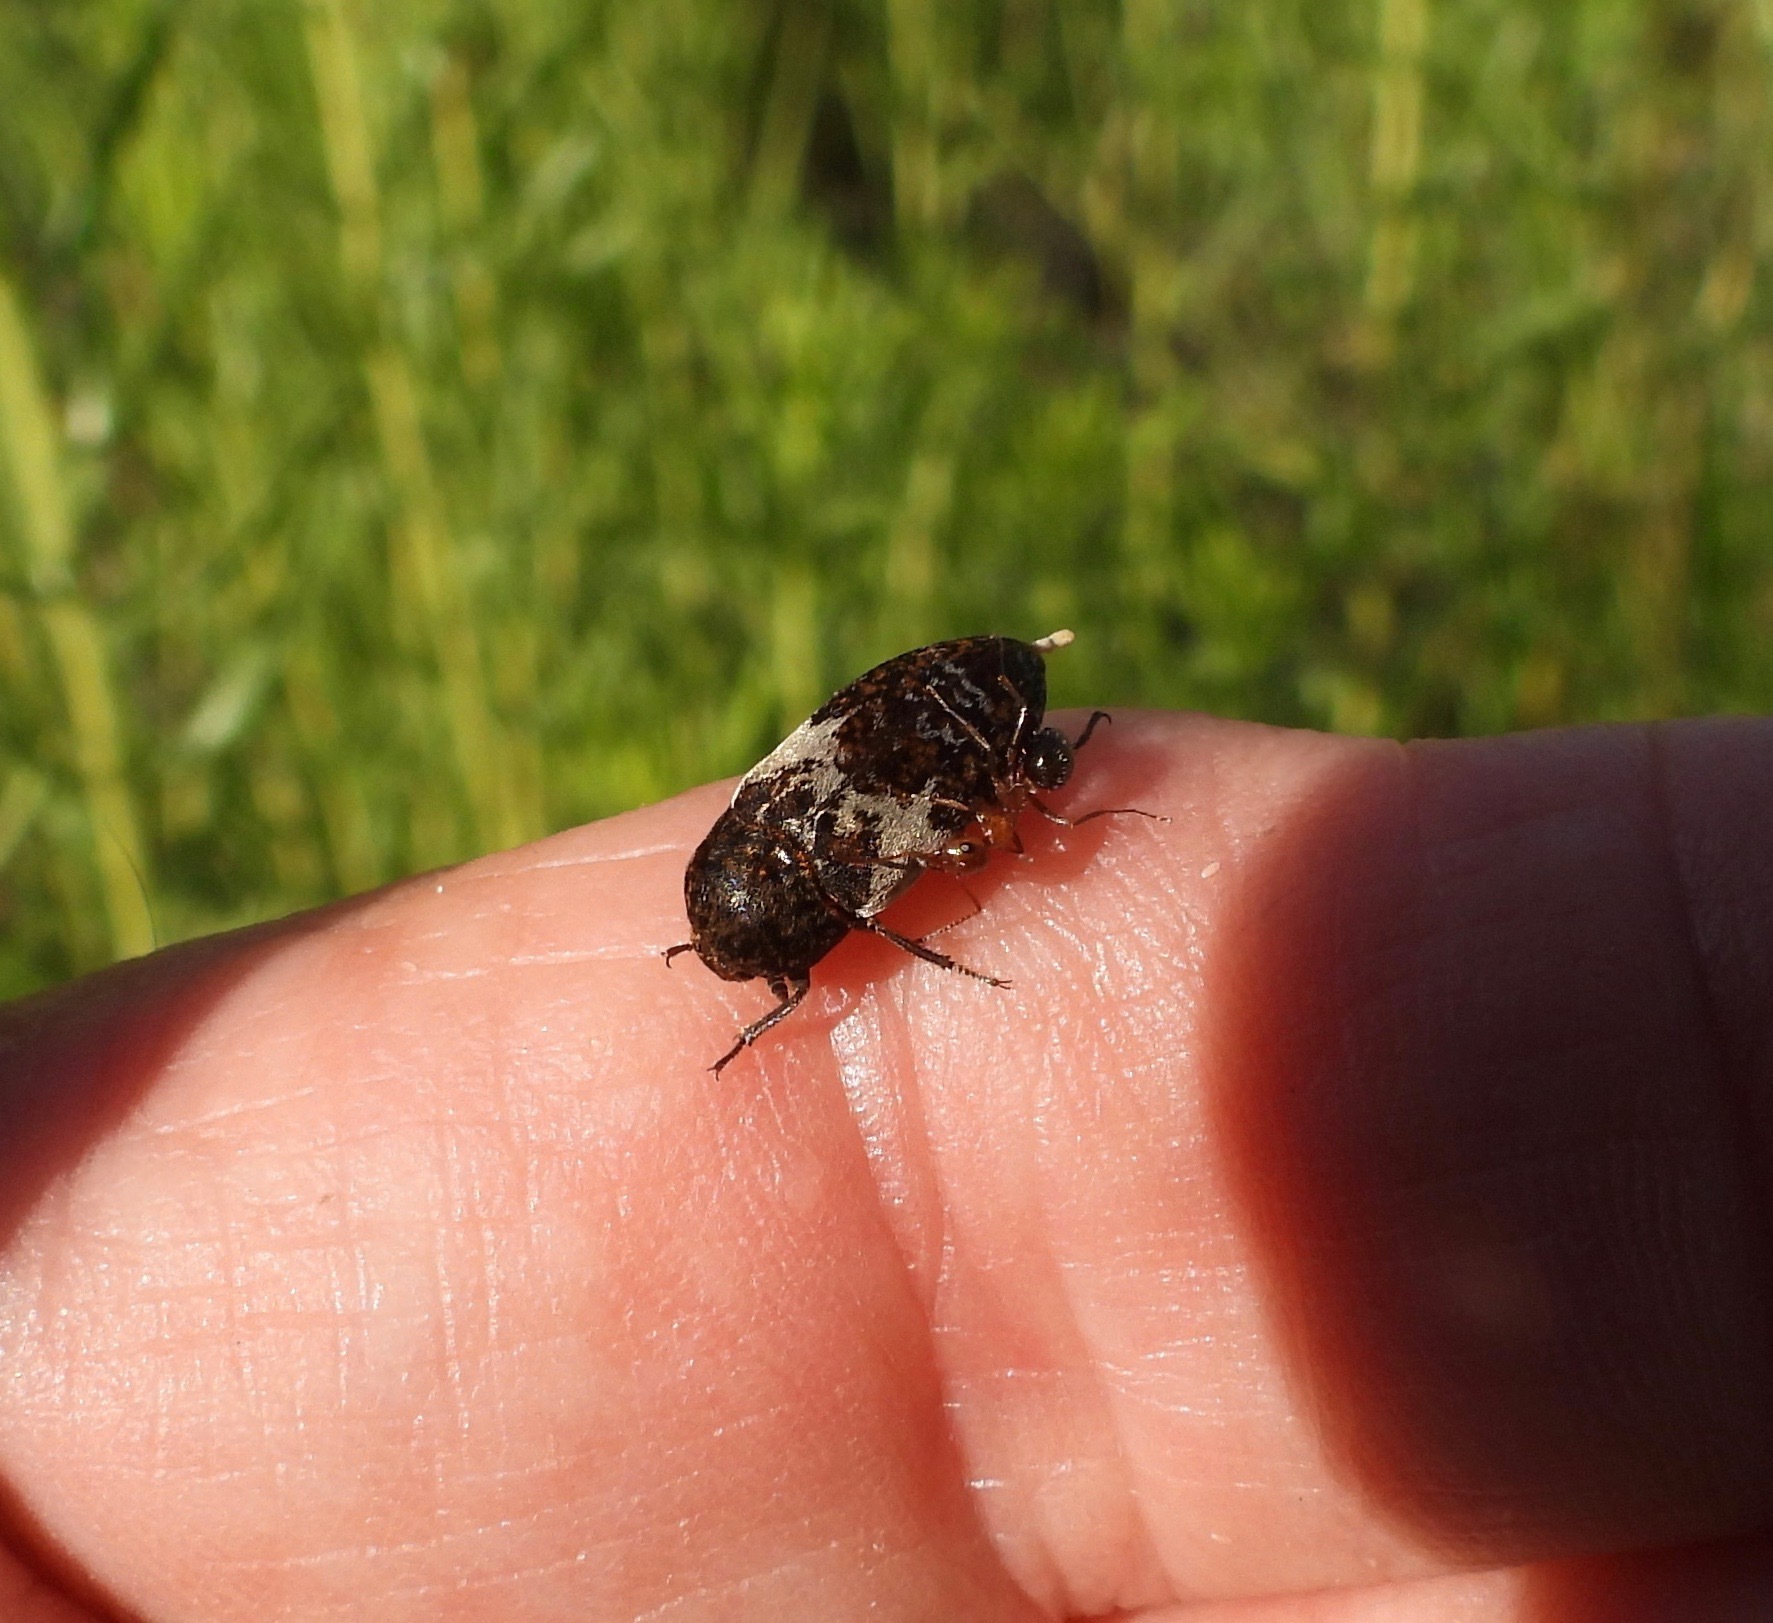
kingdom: Animalia
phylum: Arthropoda
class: Insecta
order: Coleoptera
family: Dermestidae
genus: Dermestes
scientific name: Dermestes marmoratus
